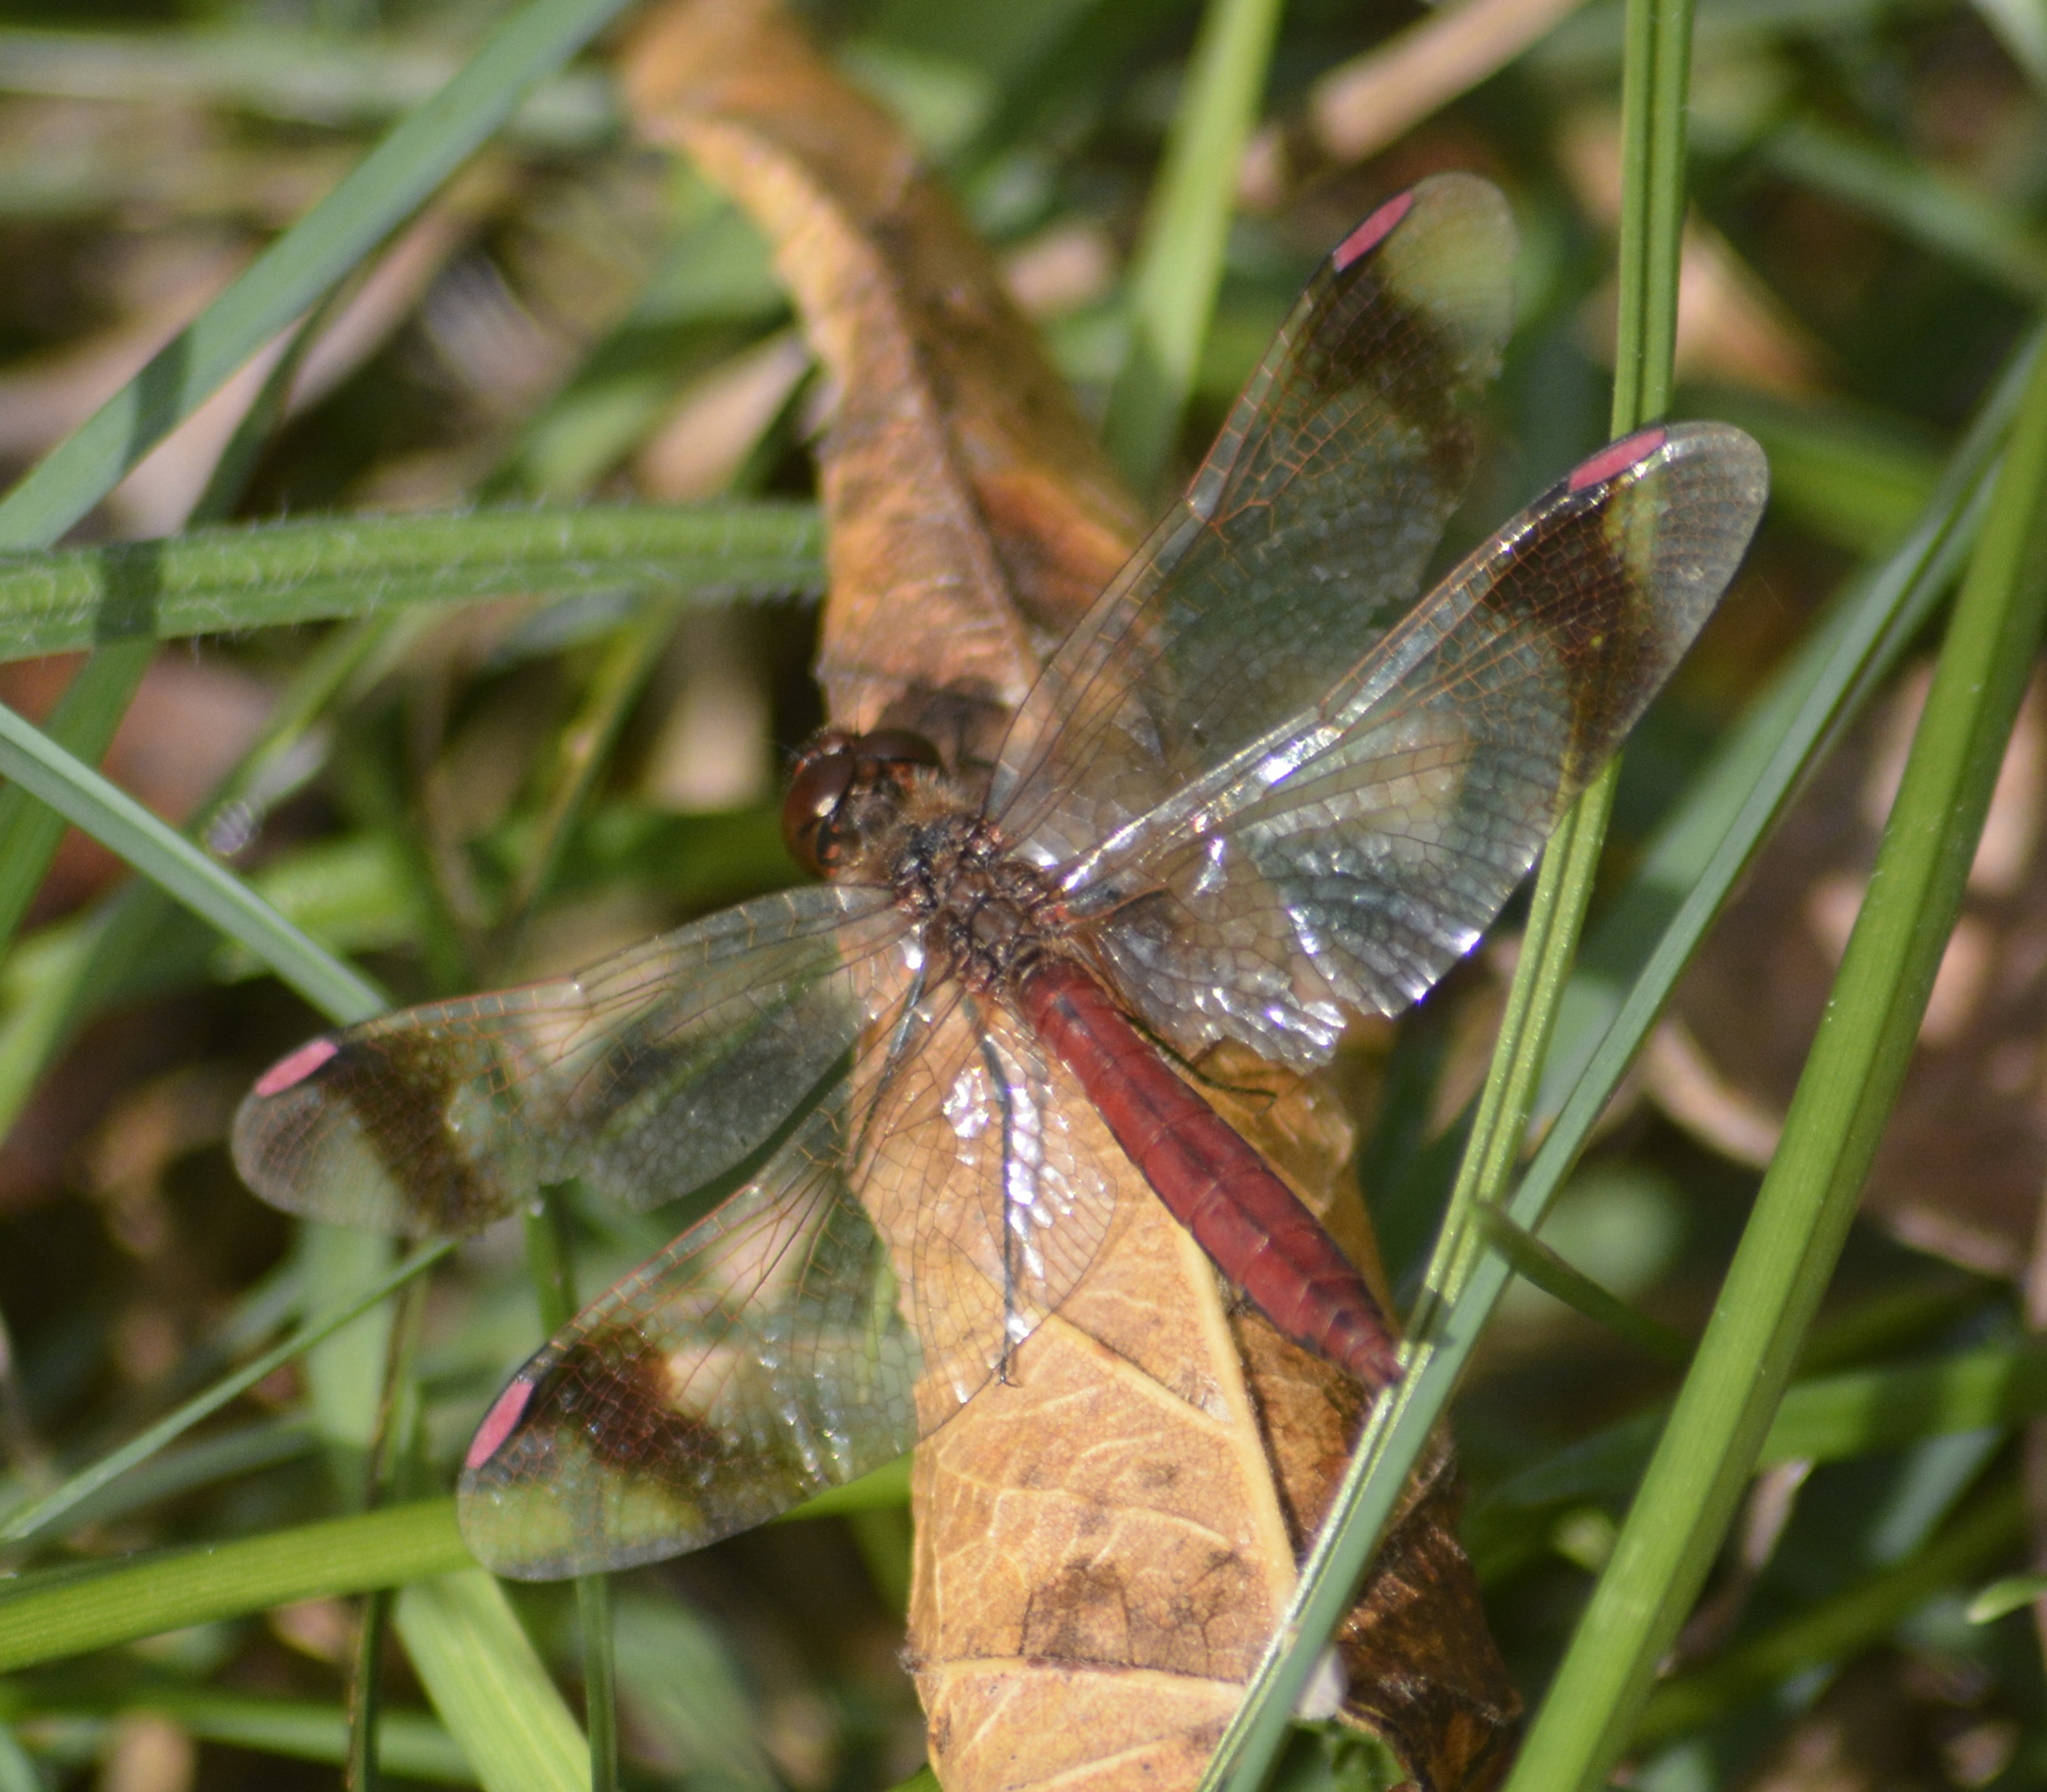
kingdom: Animalia
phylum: Arthropoda
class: Insecta
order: Odonata
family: Libellulidae
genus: Sympetrum
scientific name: Sympetrum pedemontanum
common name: Banded darter
